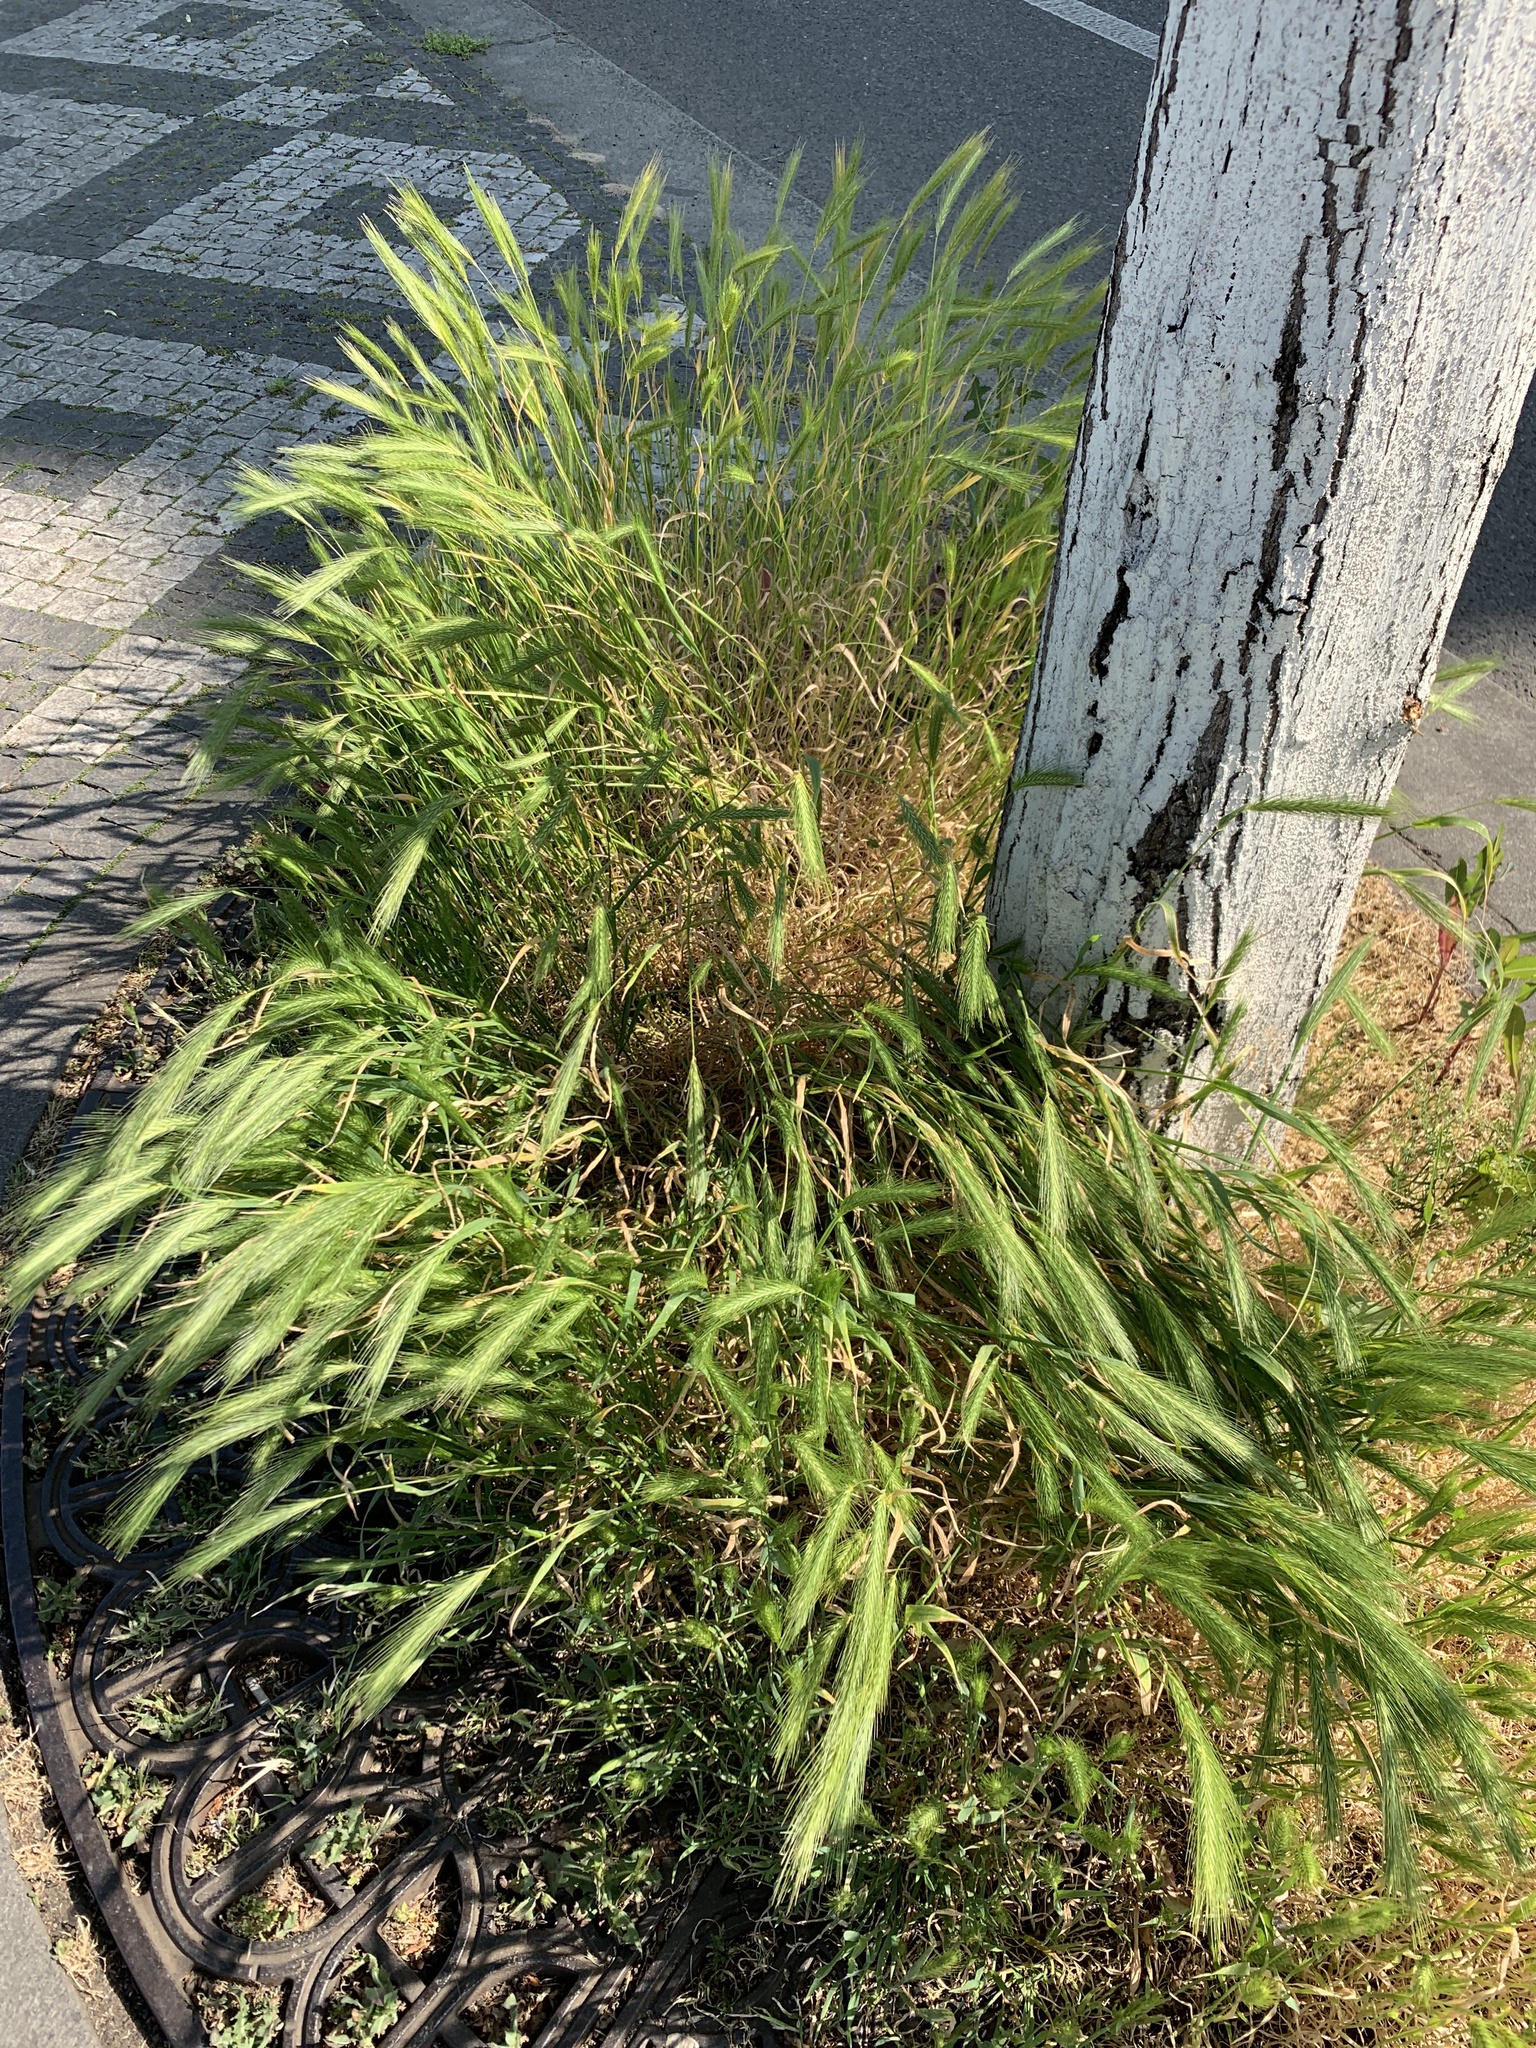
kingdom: Plantae
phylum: Tracheophyta
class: Liliopsida
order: Poales
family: Poaceae
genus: Hordeum
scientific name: Hordeum murinum
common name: Wall barley
